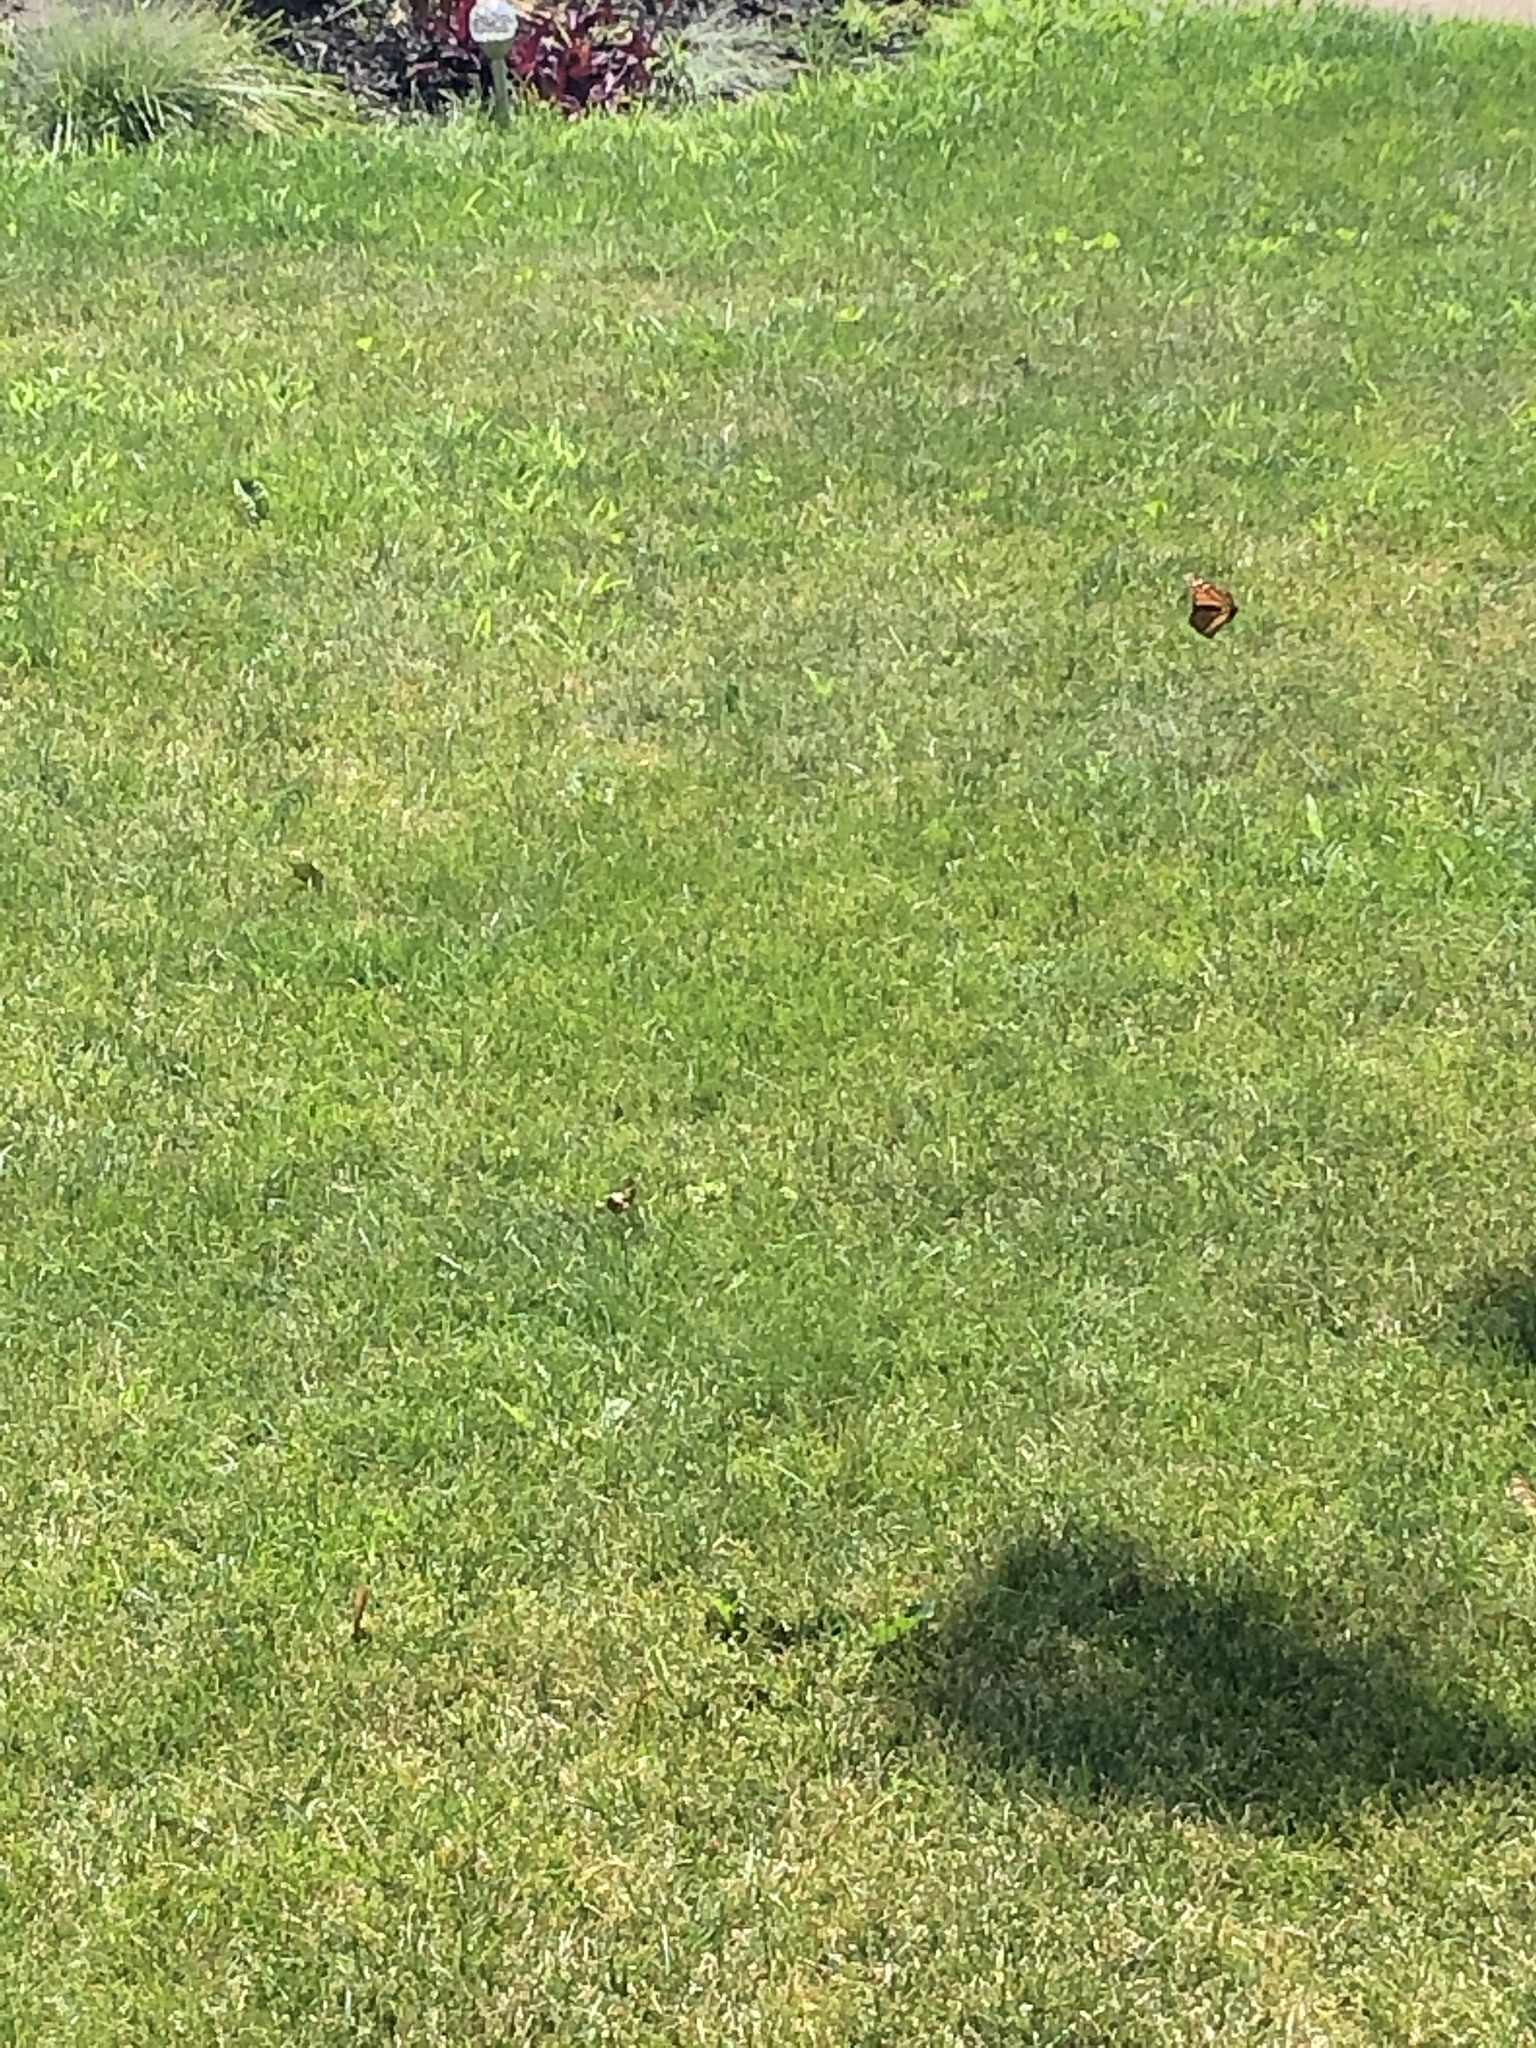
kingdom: Animalia
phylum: Arthropoda
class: Insecta
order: Lepidoptera
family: Nymphalidae
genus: Danaus
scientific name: Danaus plexippus
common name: Monarch
